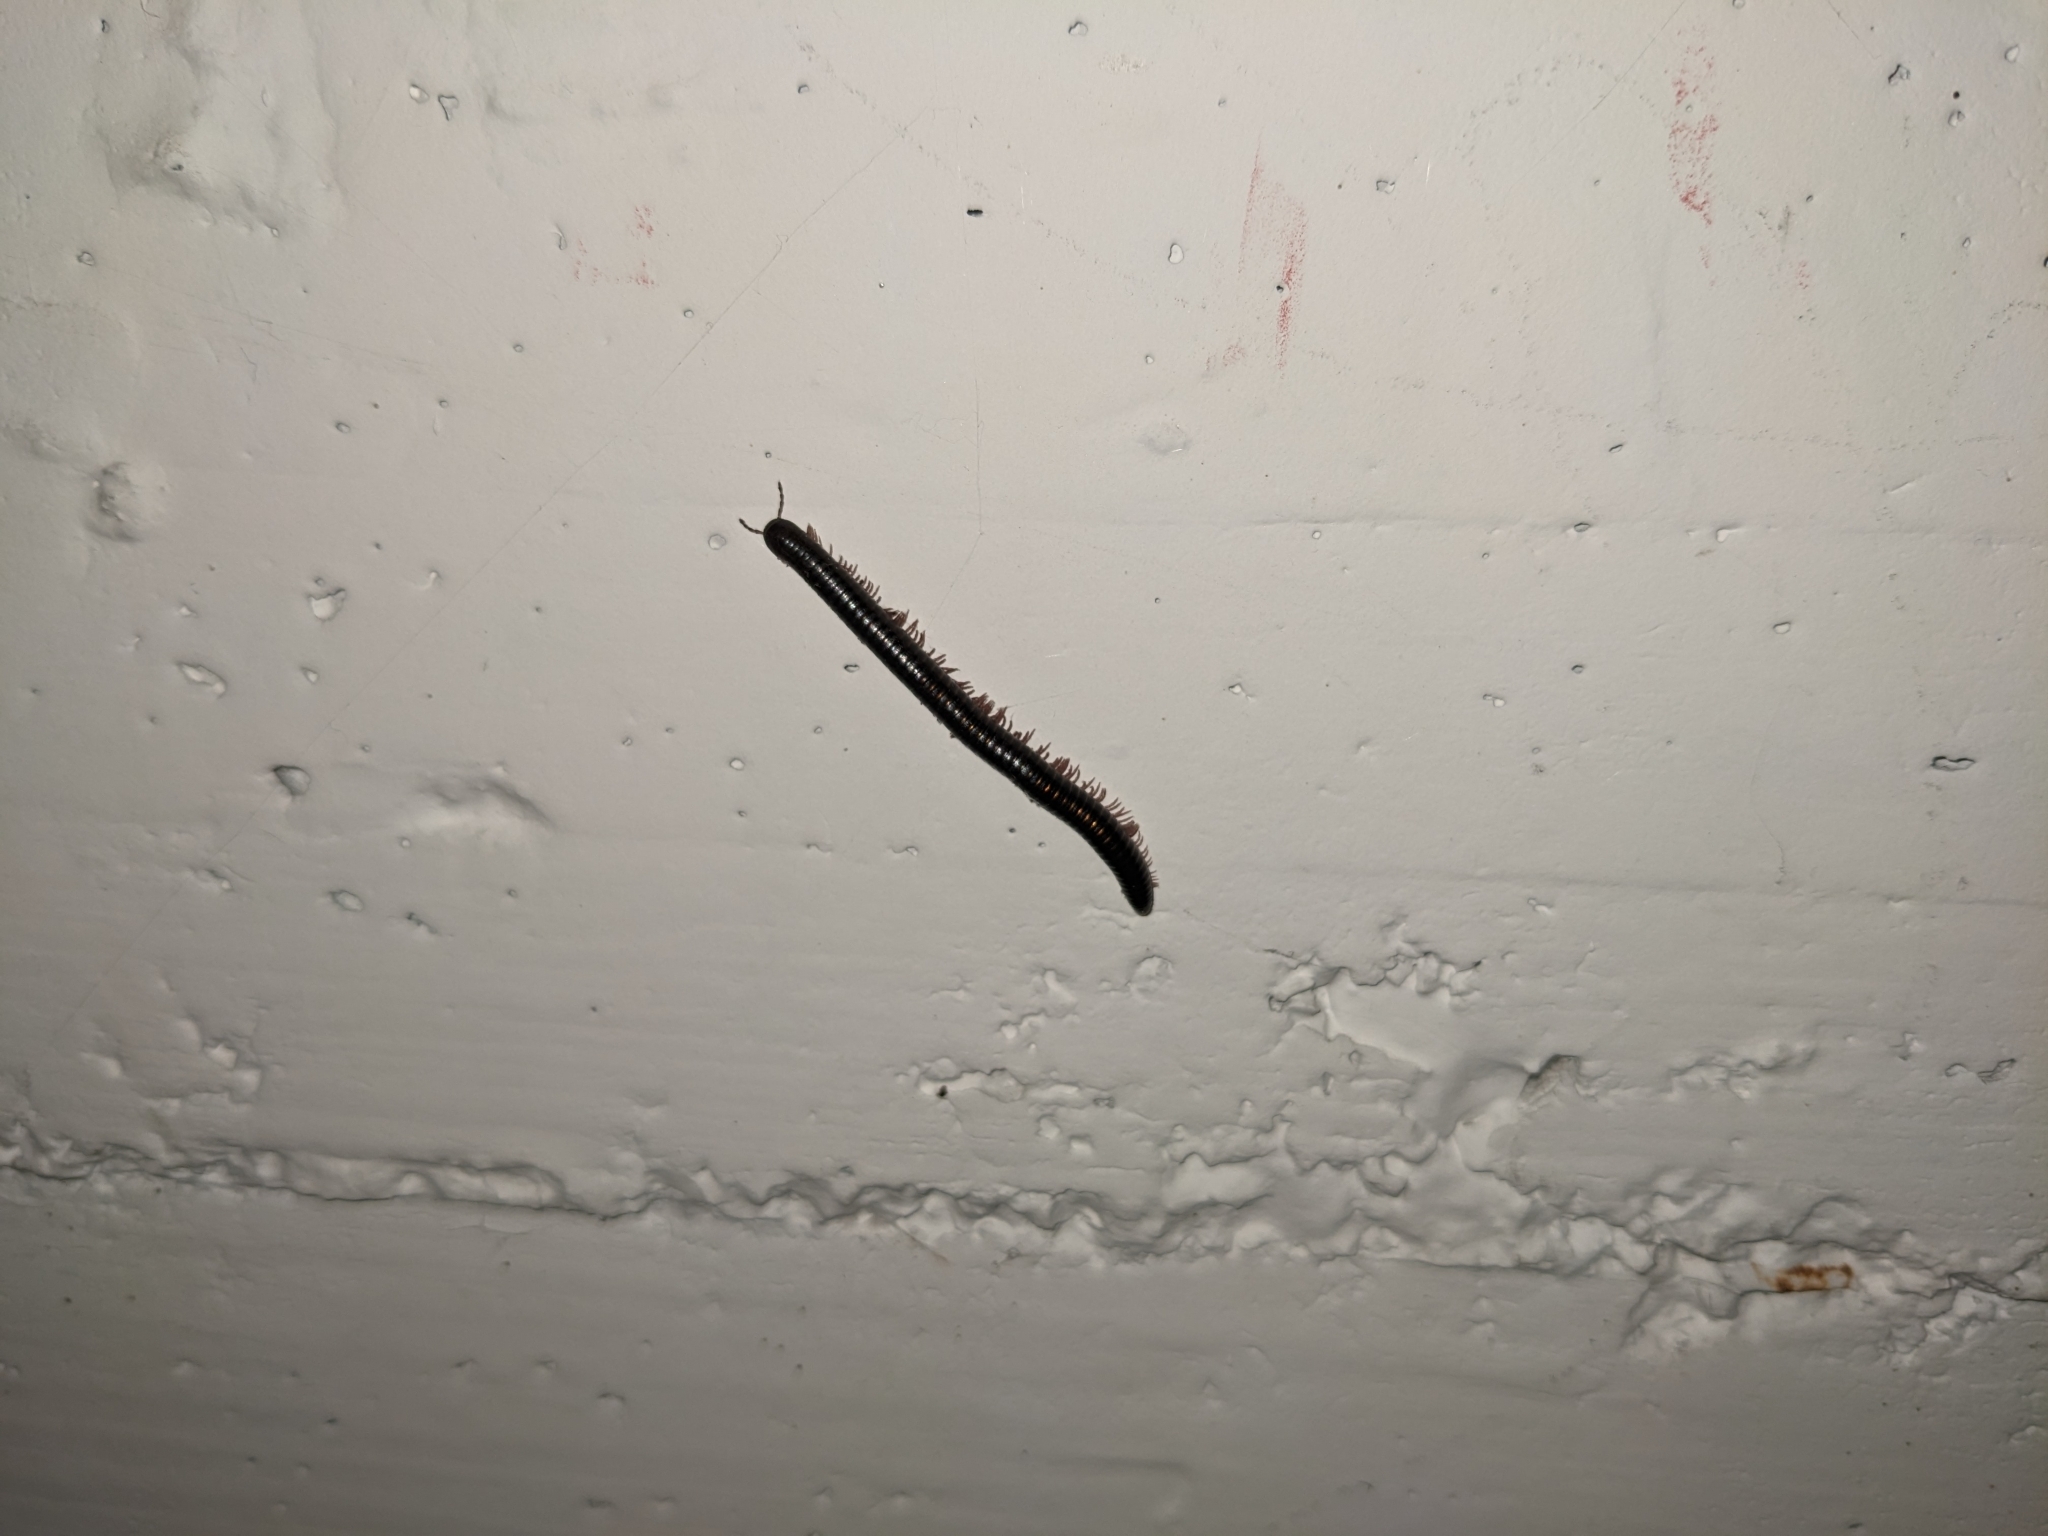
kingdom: Animalia
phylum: Arthropoda
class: Diplopoda
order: Julida
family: Julidae
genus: Pachyiulus
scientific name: Pachyiulus oenologus
